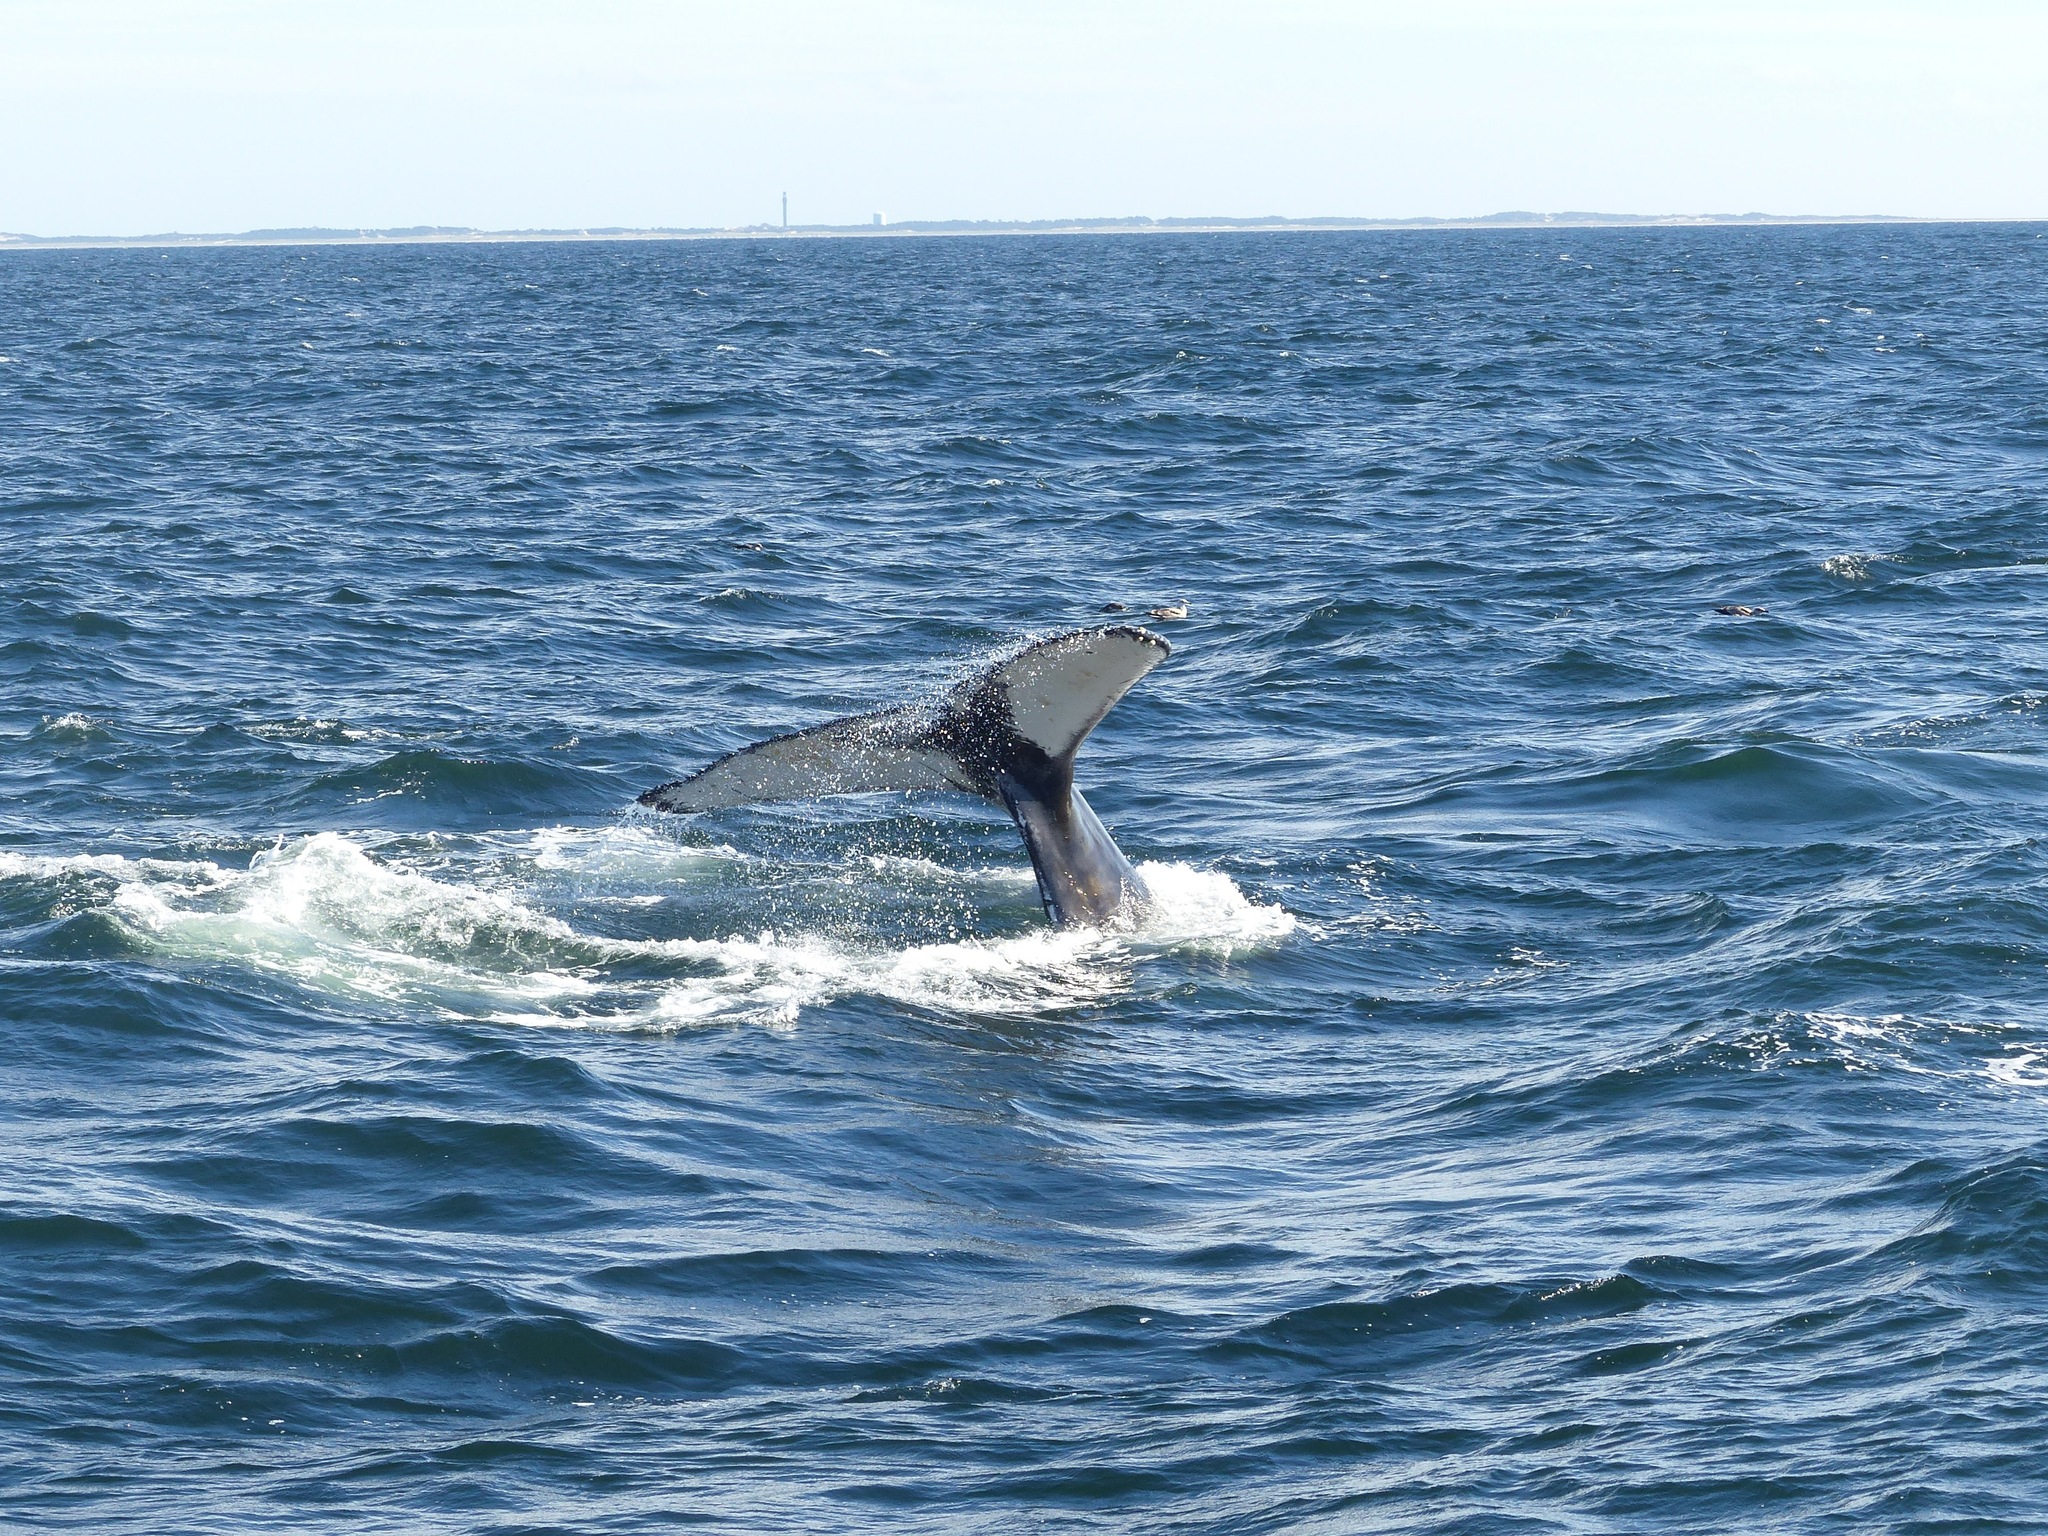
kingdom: Animalia
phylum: Chordata
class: Mammalia
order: Cetacea
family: Balaenopteridae
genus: Megaptera
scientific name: Megaptera novaeangliae
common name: Humpback whale
